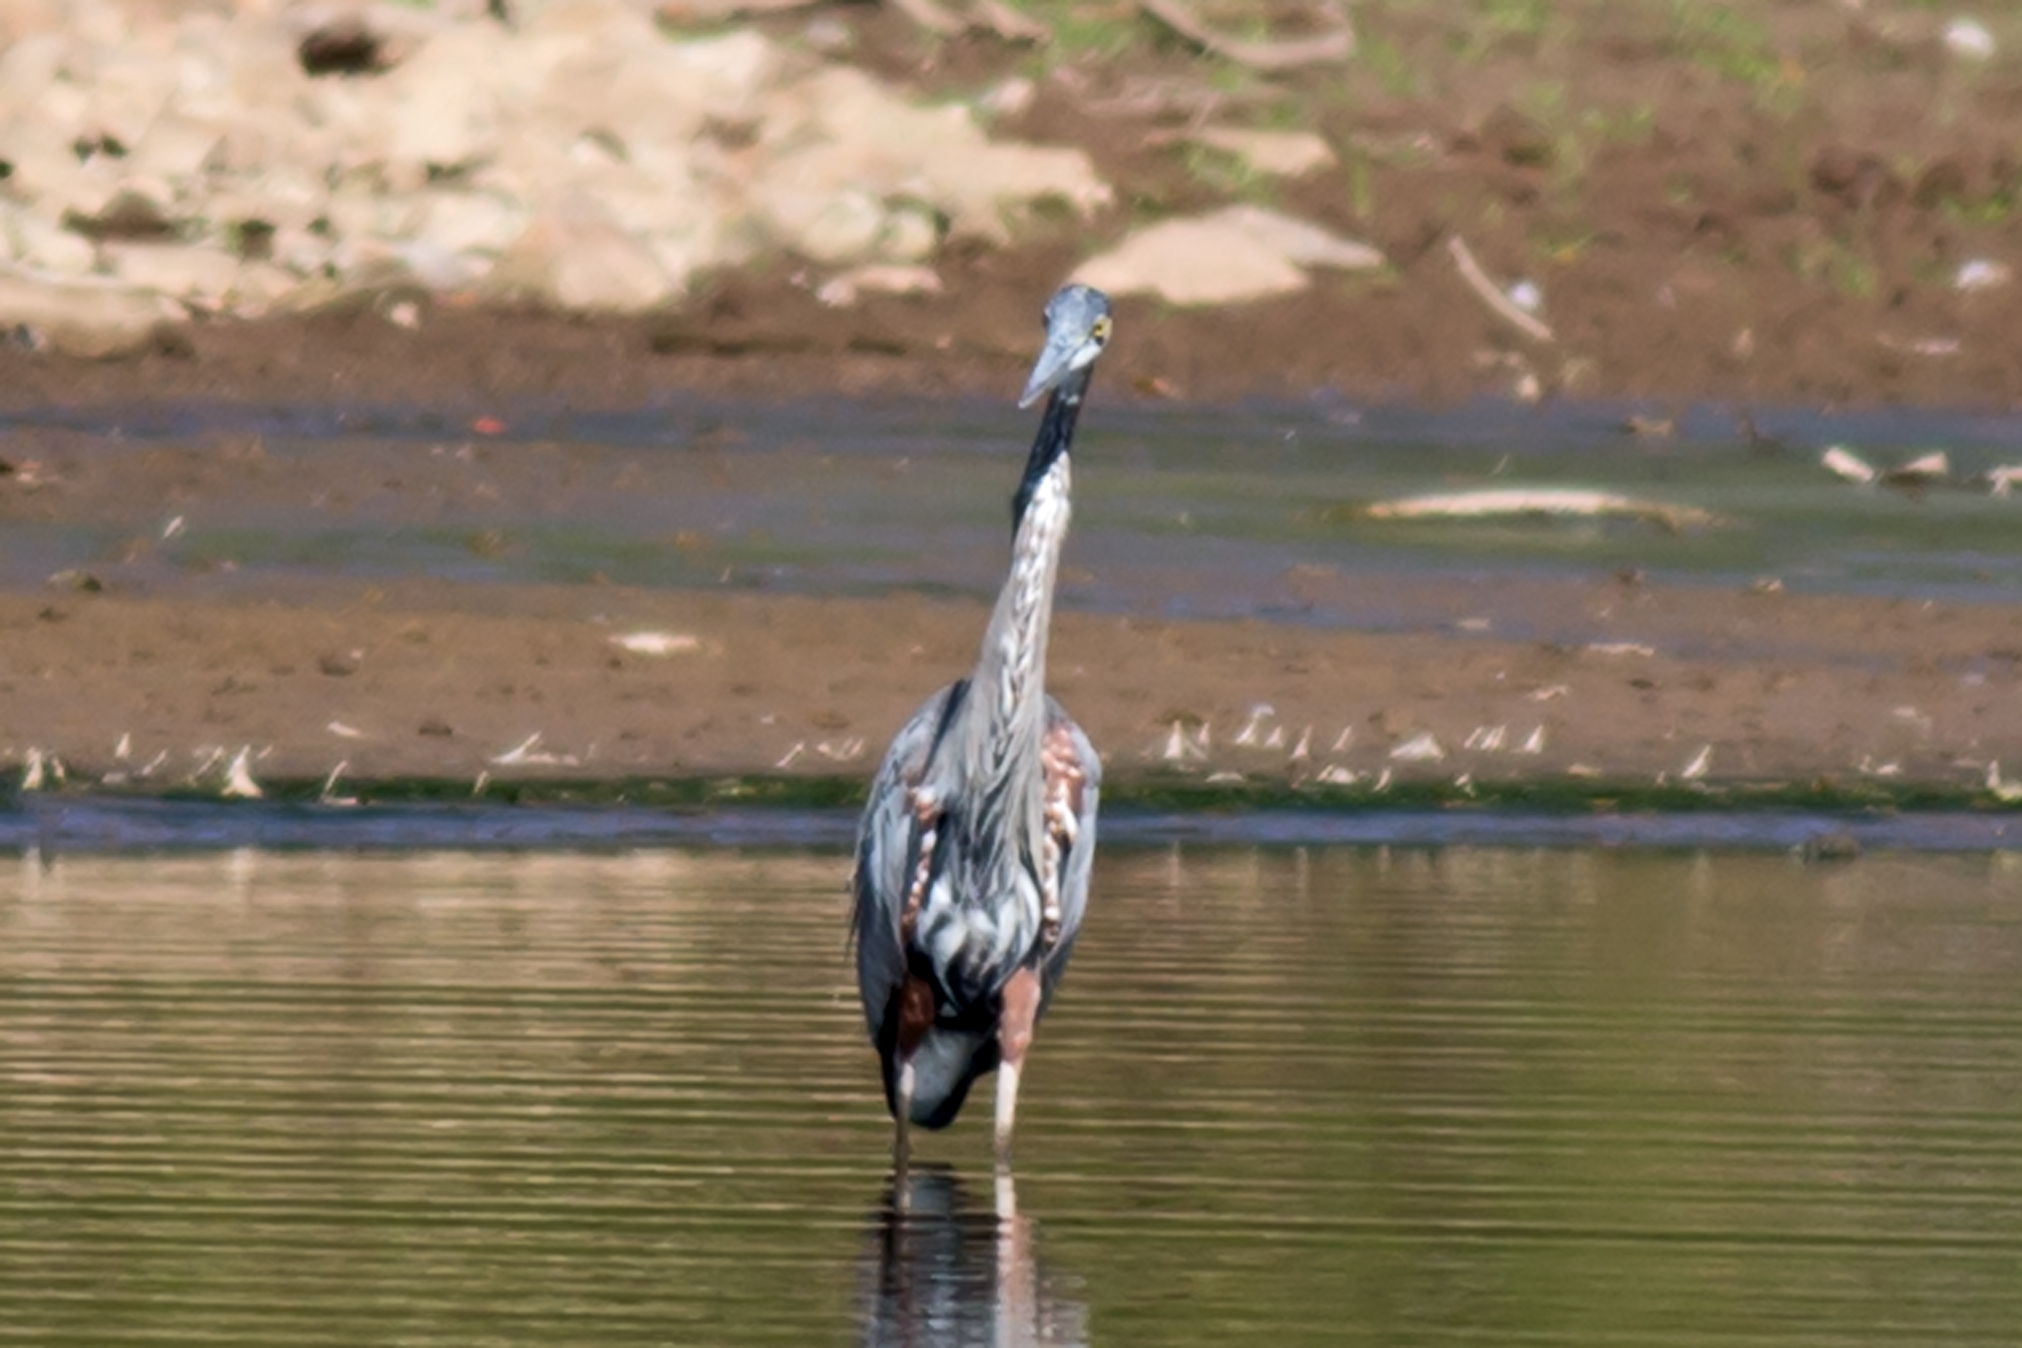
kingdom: Animalia
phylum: Chordata
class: Aves
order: Pelecaniformes
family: Ardeidae
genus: Ardea
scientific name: Ardea herodias
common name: Great blue heron
